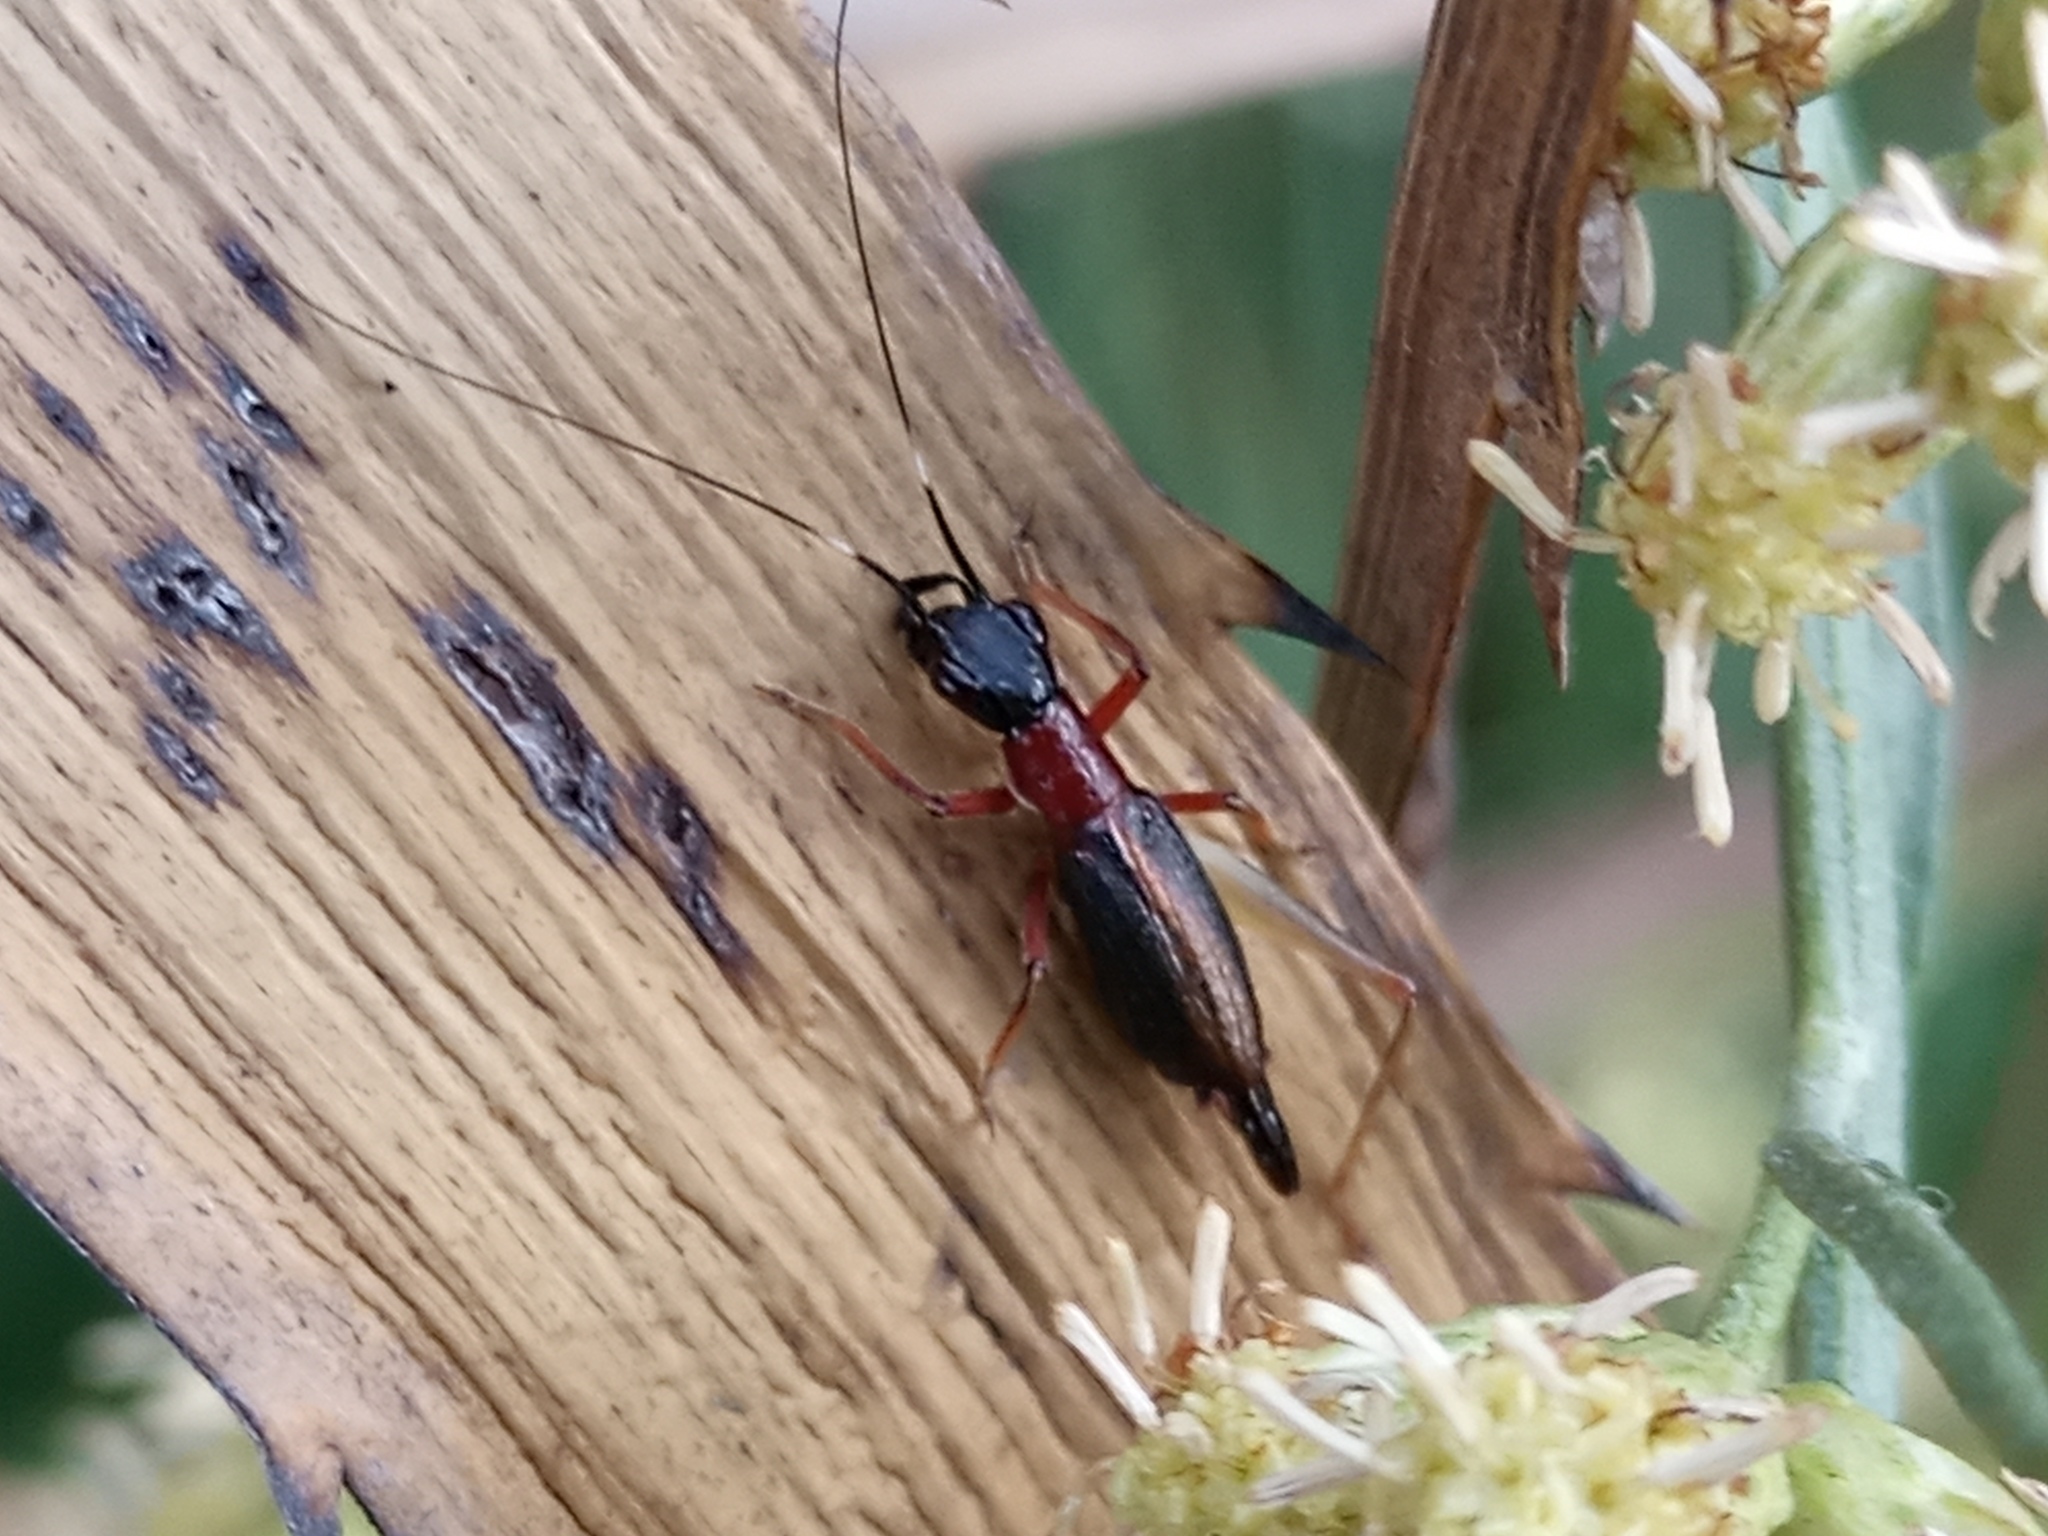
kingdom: Animalia
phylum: Arthropoda
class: Insecta
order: Orthoptera
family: Trigonidiidae
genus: Cranistus
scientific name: Cranistus colliurides
